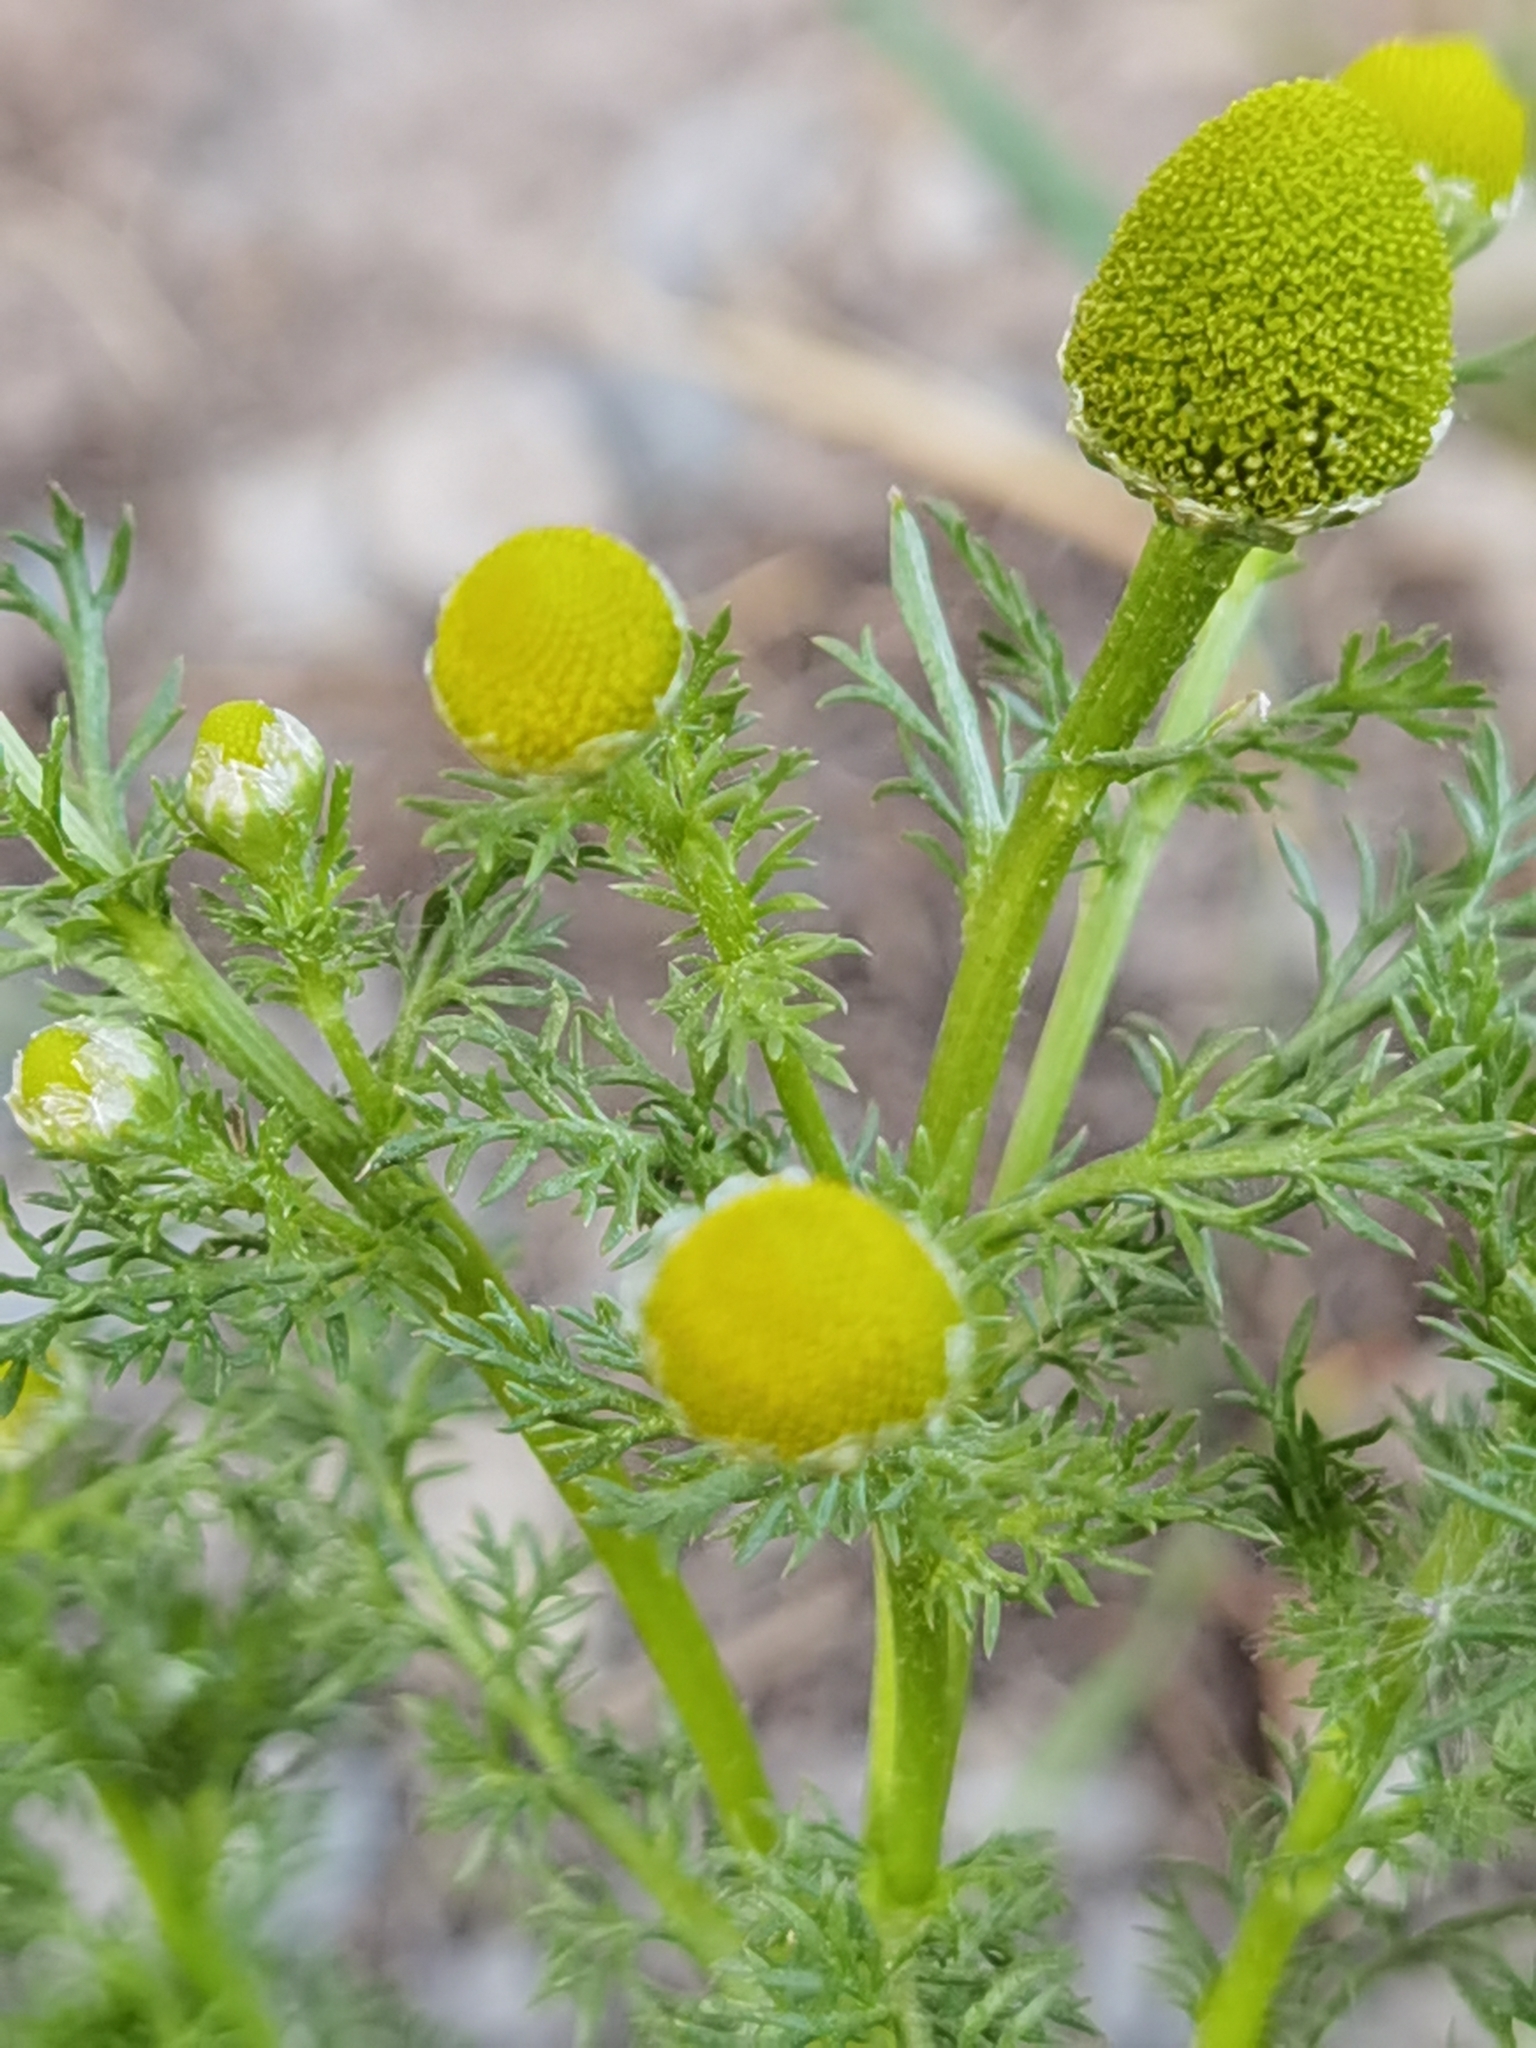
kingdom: Plantae
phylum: Tracheophyta
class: Magnoliopsida
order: Asterales
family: Asteraceae
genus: Matricaria
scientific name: Matricaria discoidea
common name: Disc mayweed
